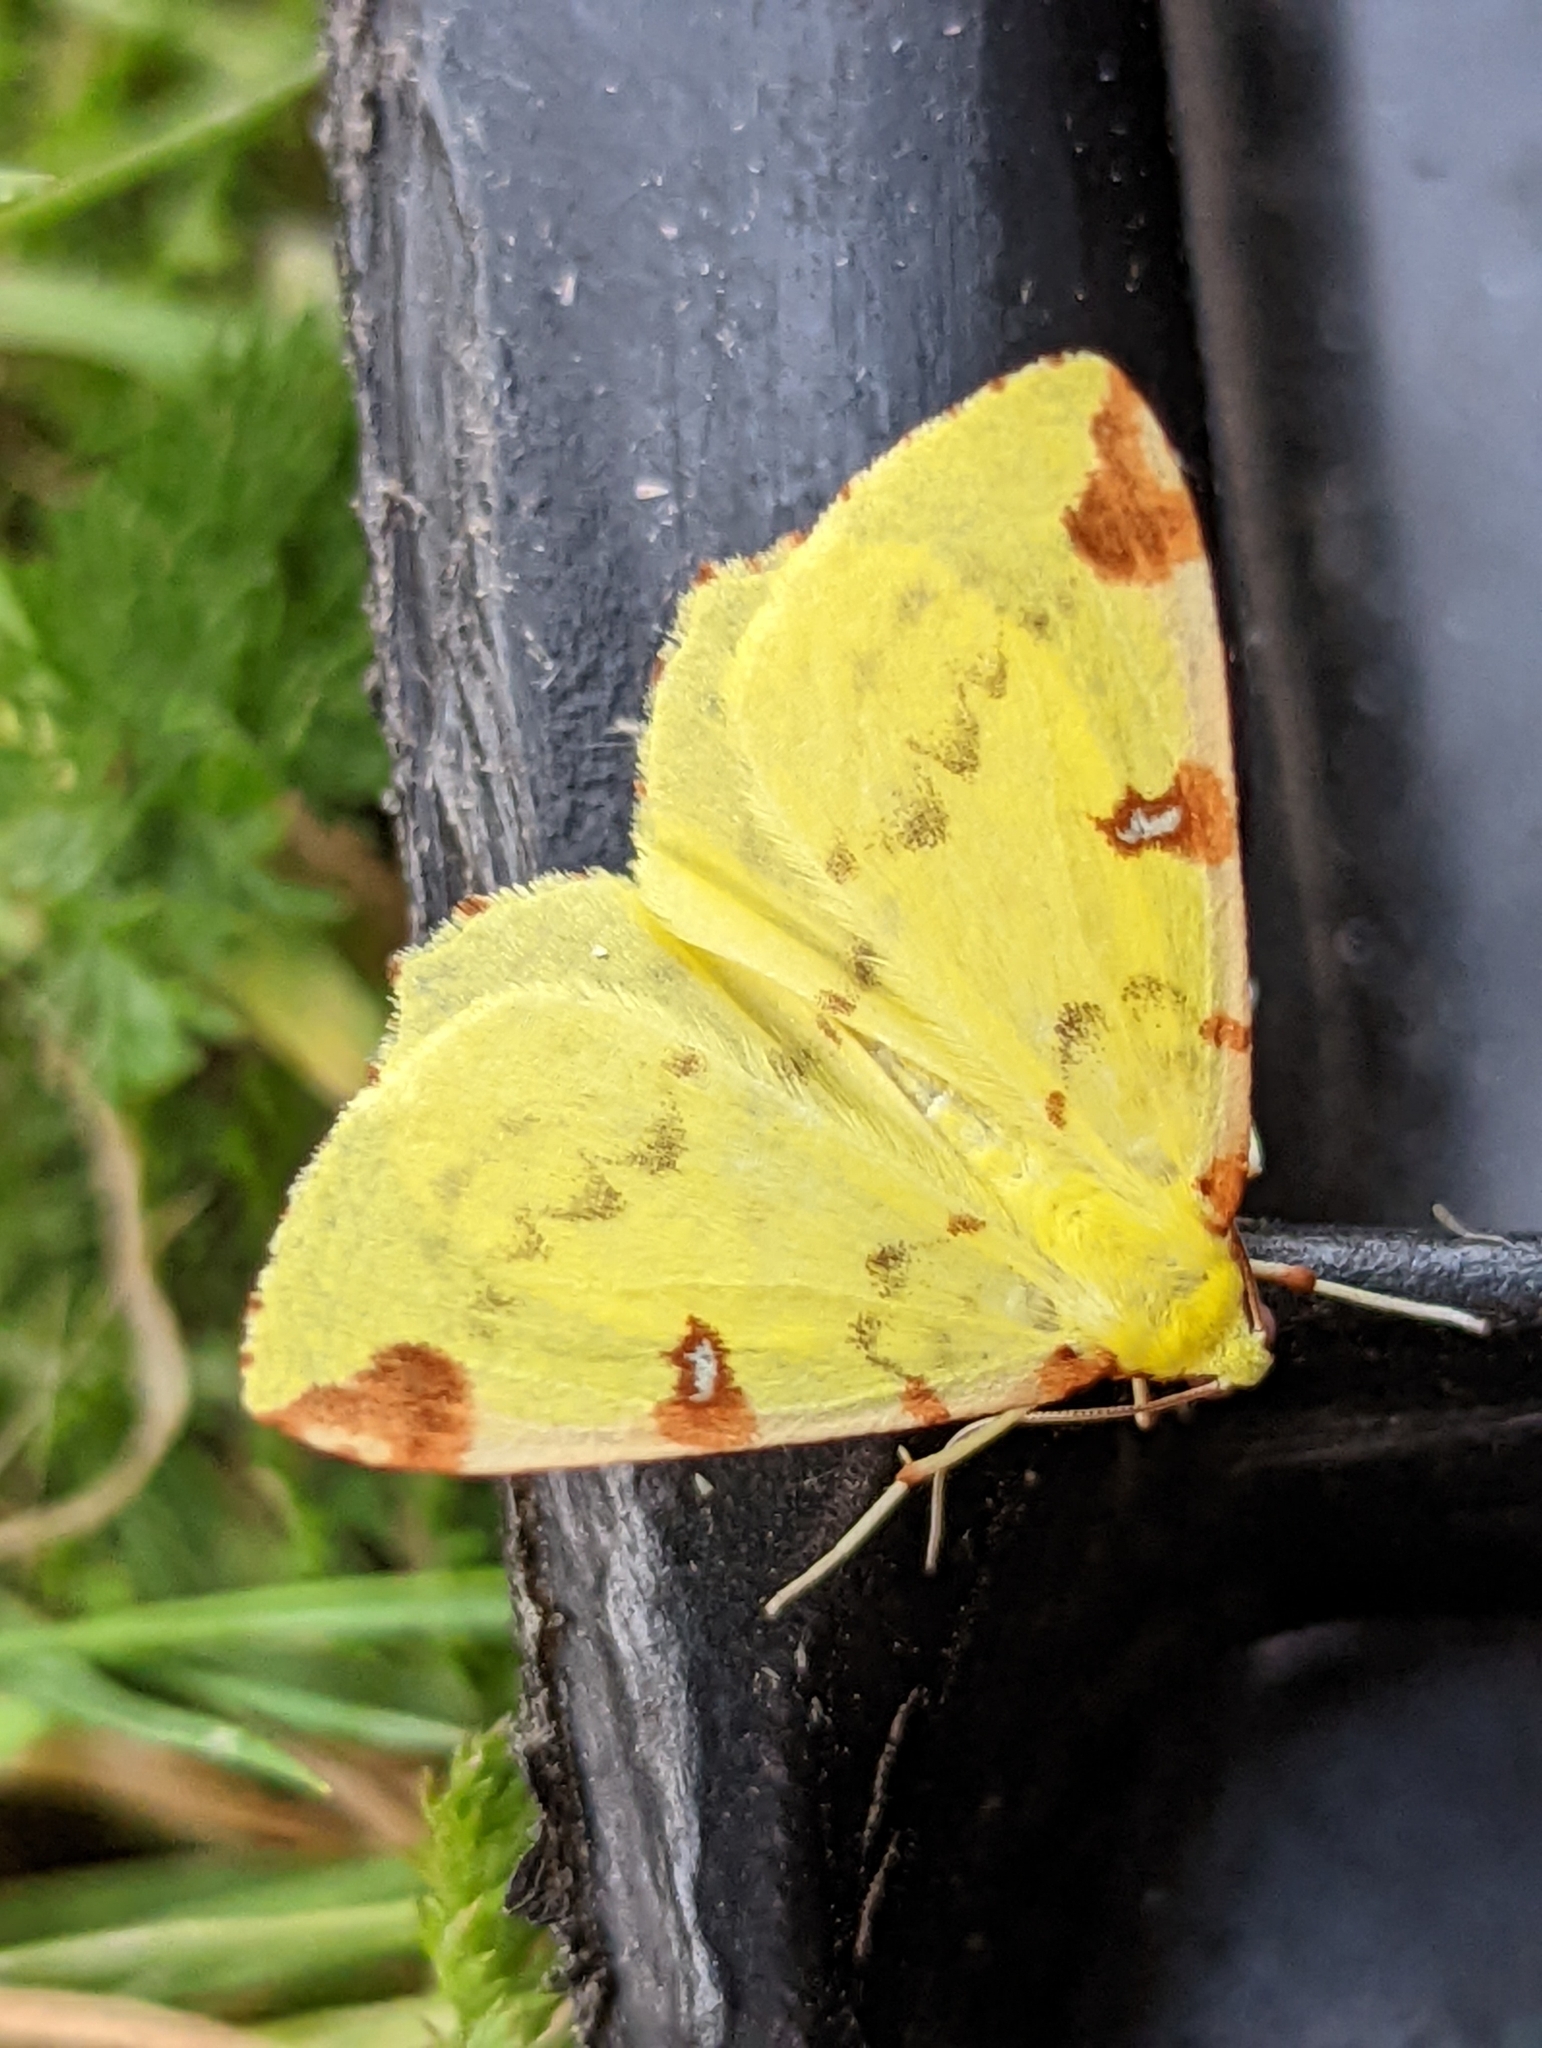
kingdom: Animalia
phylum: Arthropoda
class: Insecta
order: Lepidoptera
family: Geometridae
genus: Opisthograptis
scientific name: Opisthograptis luteolata
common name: Brimstone moth
